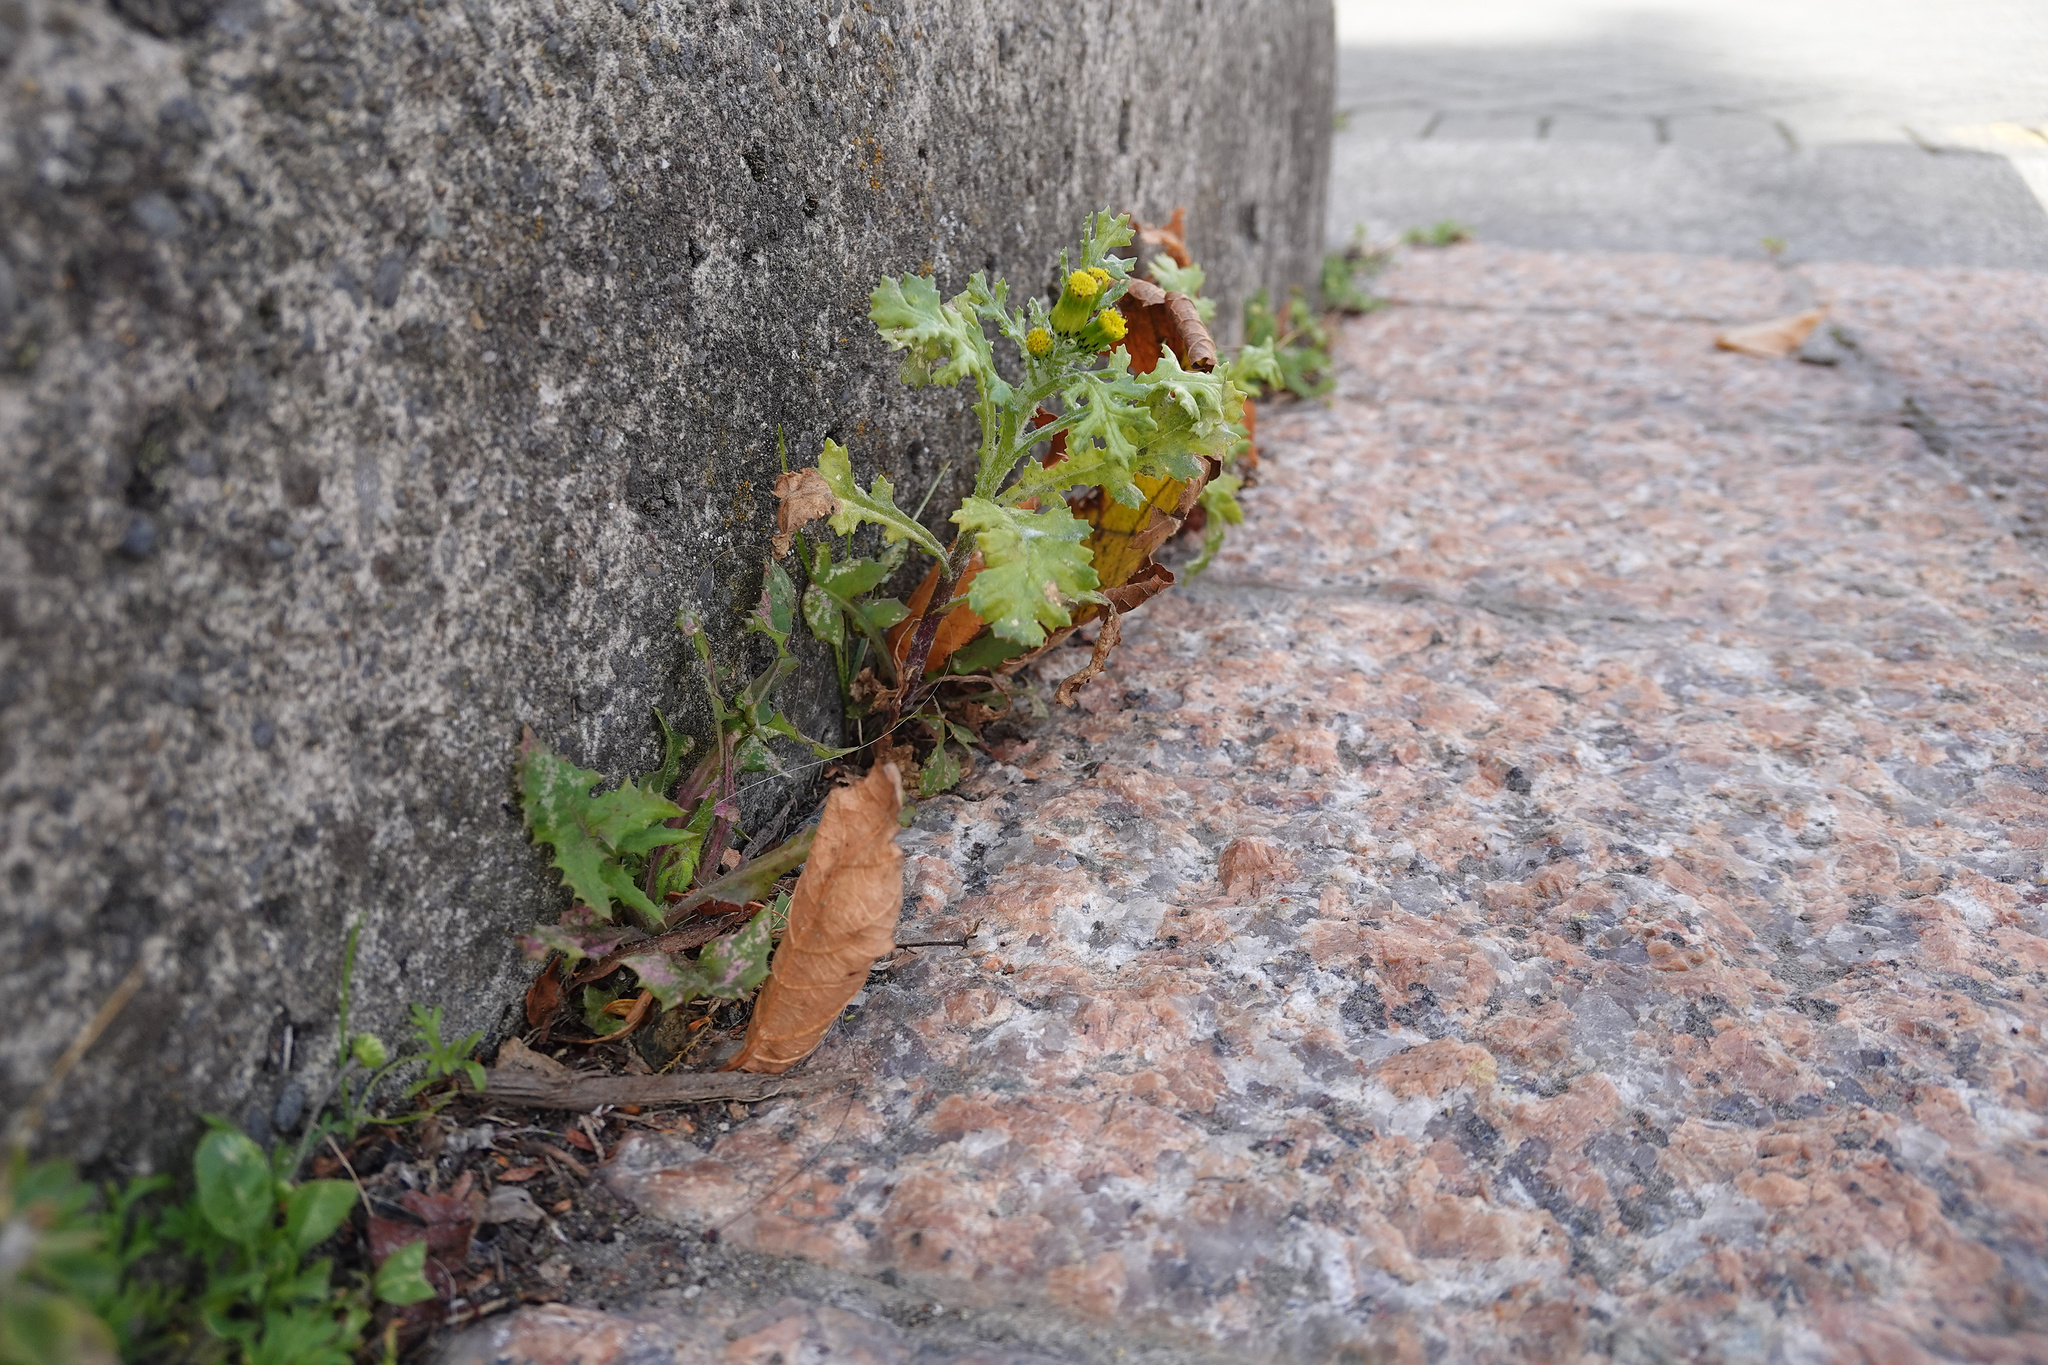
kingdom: Plantae
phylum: Tracheophyta
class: Magnoliopsida
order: Asterales
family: Asteraceae
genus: Senecio
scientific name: Senecio vulgaris
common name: Old-man-in-the-spring
